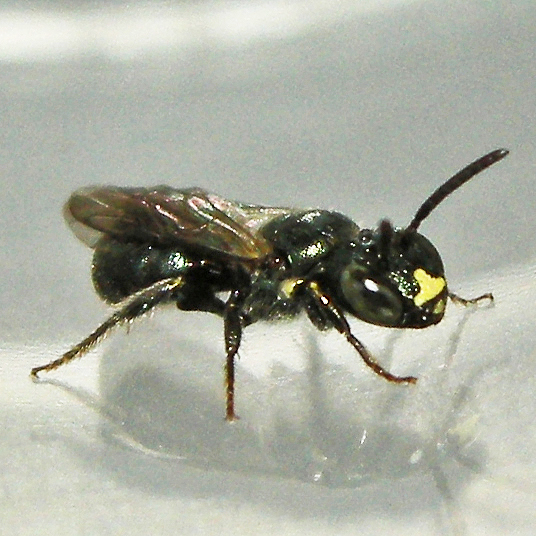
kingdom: Animalia
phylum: Arthropoda
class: Insecta
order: Hymenoptera
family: Apidae
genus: Ceratina
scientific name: Ceratina calcarata
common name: Spurred carpenter bee
